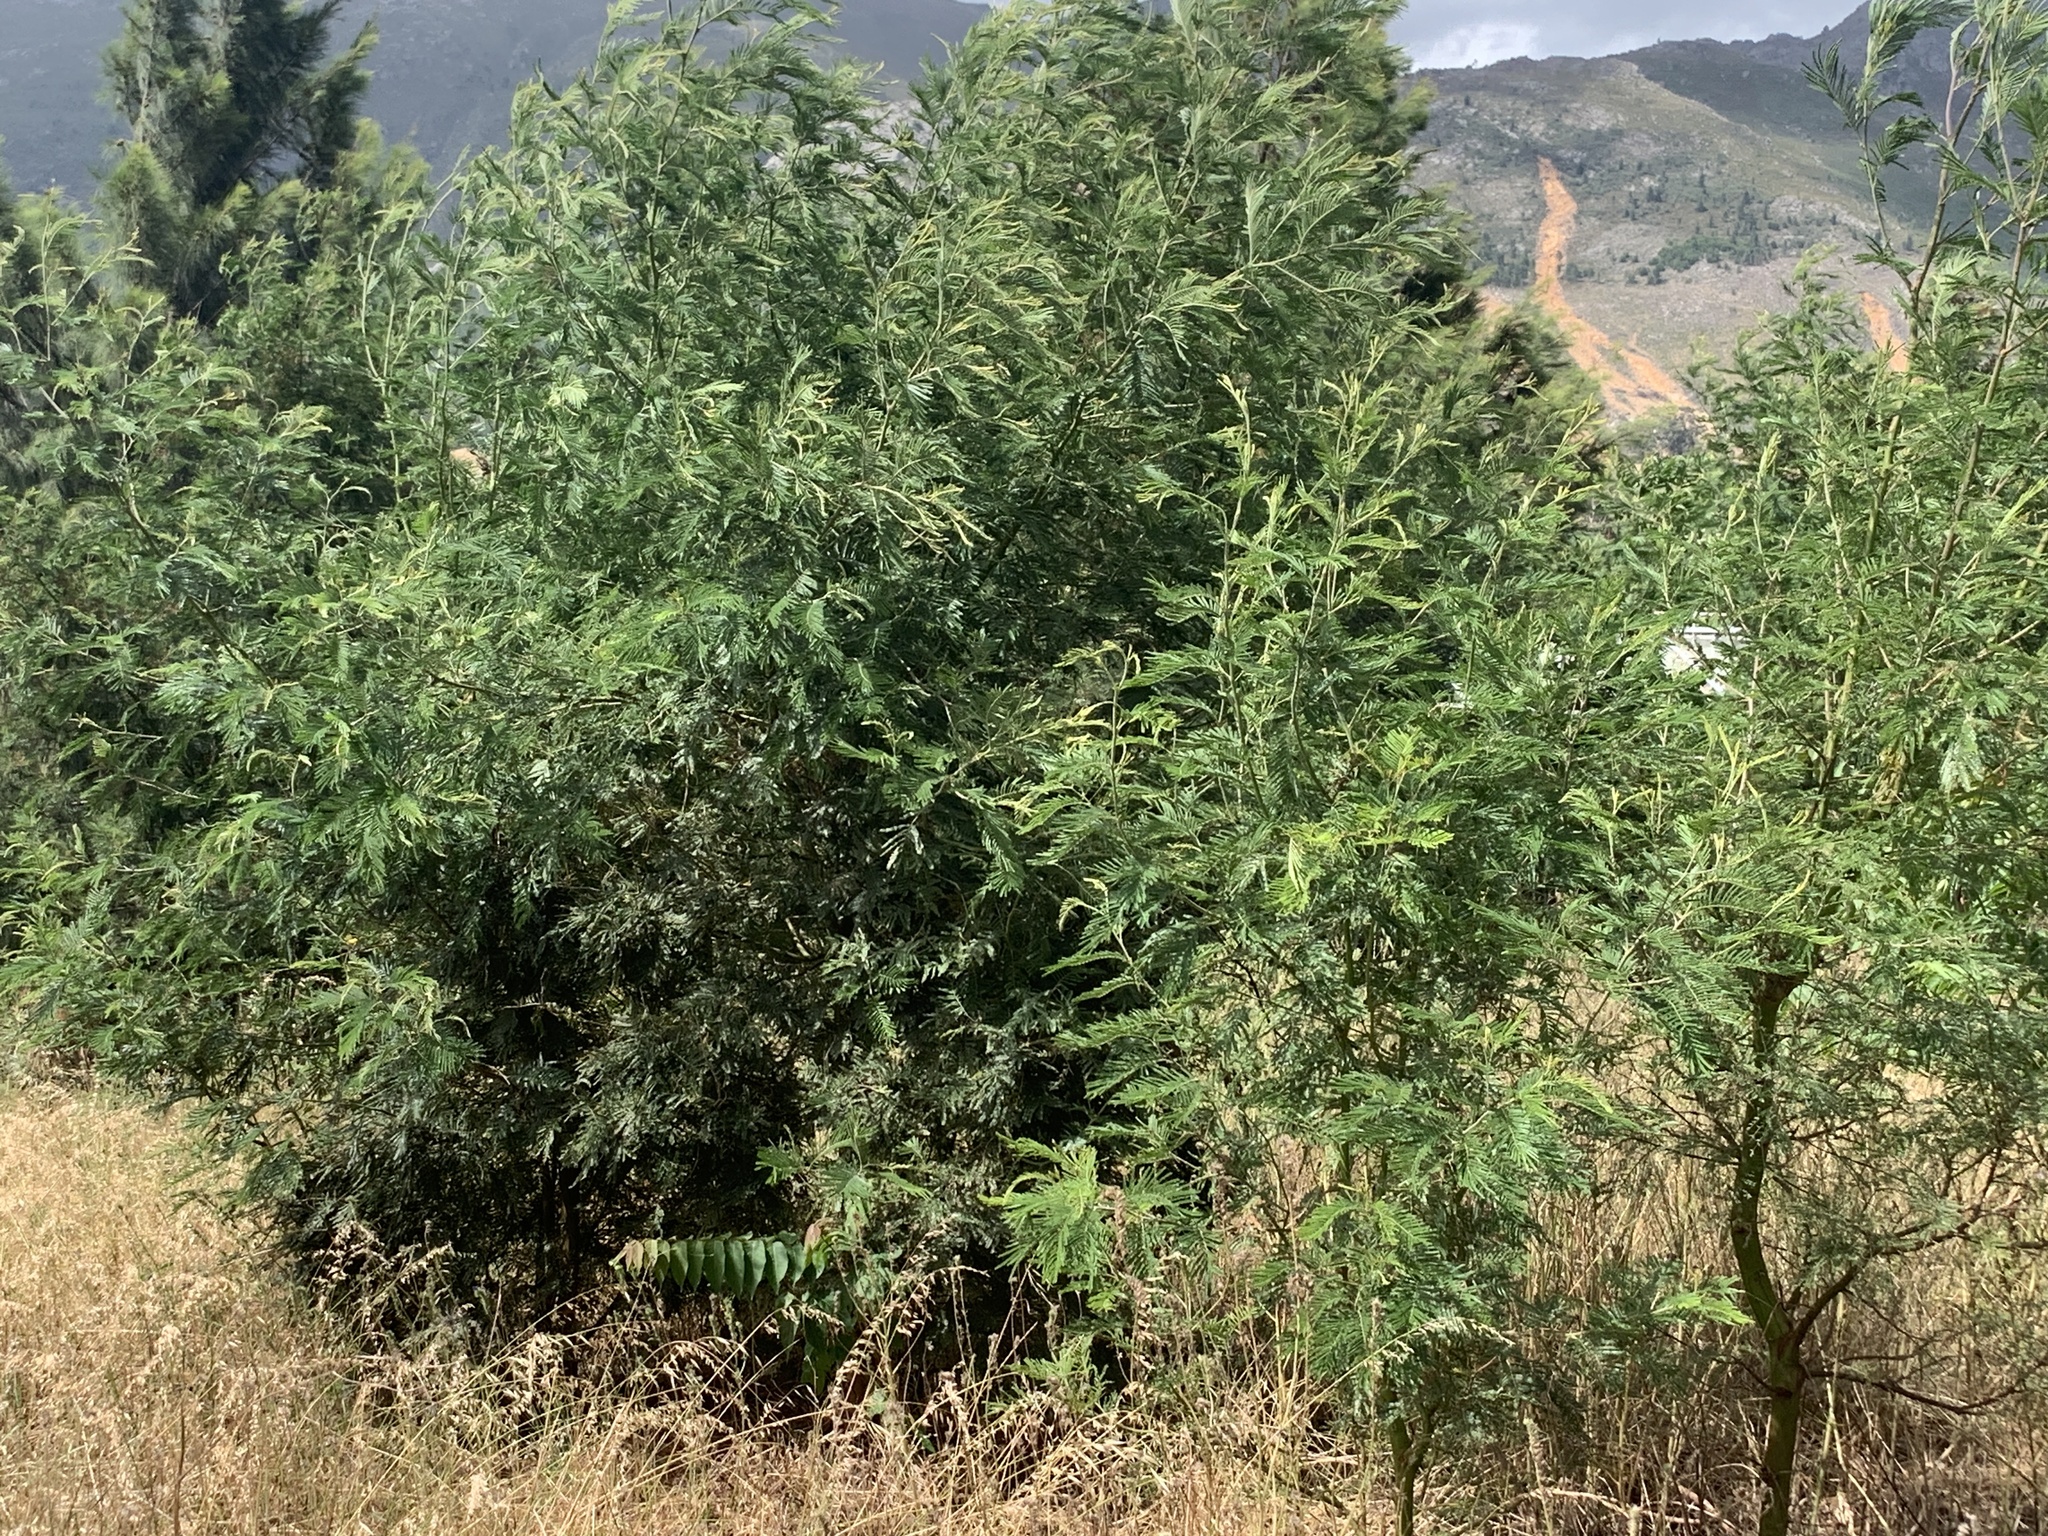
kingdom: Plantae
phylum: Tracheophyta
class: Magnoliopsida
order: Fabales
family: Fabaceae
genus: Acacia
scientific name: Acacia mearnsii
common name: Black wattle
